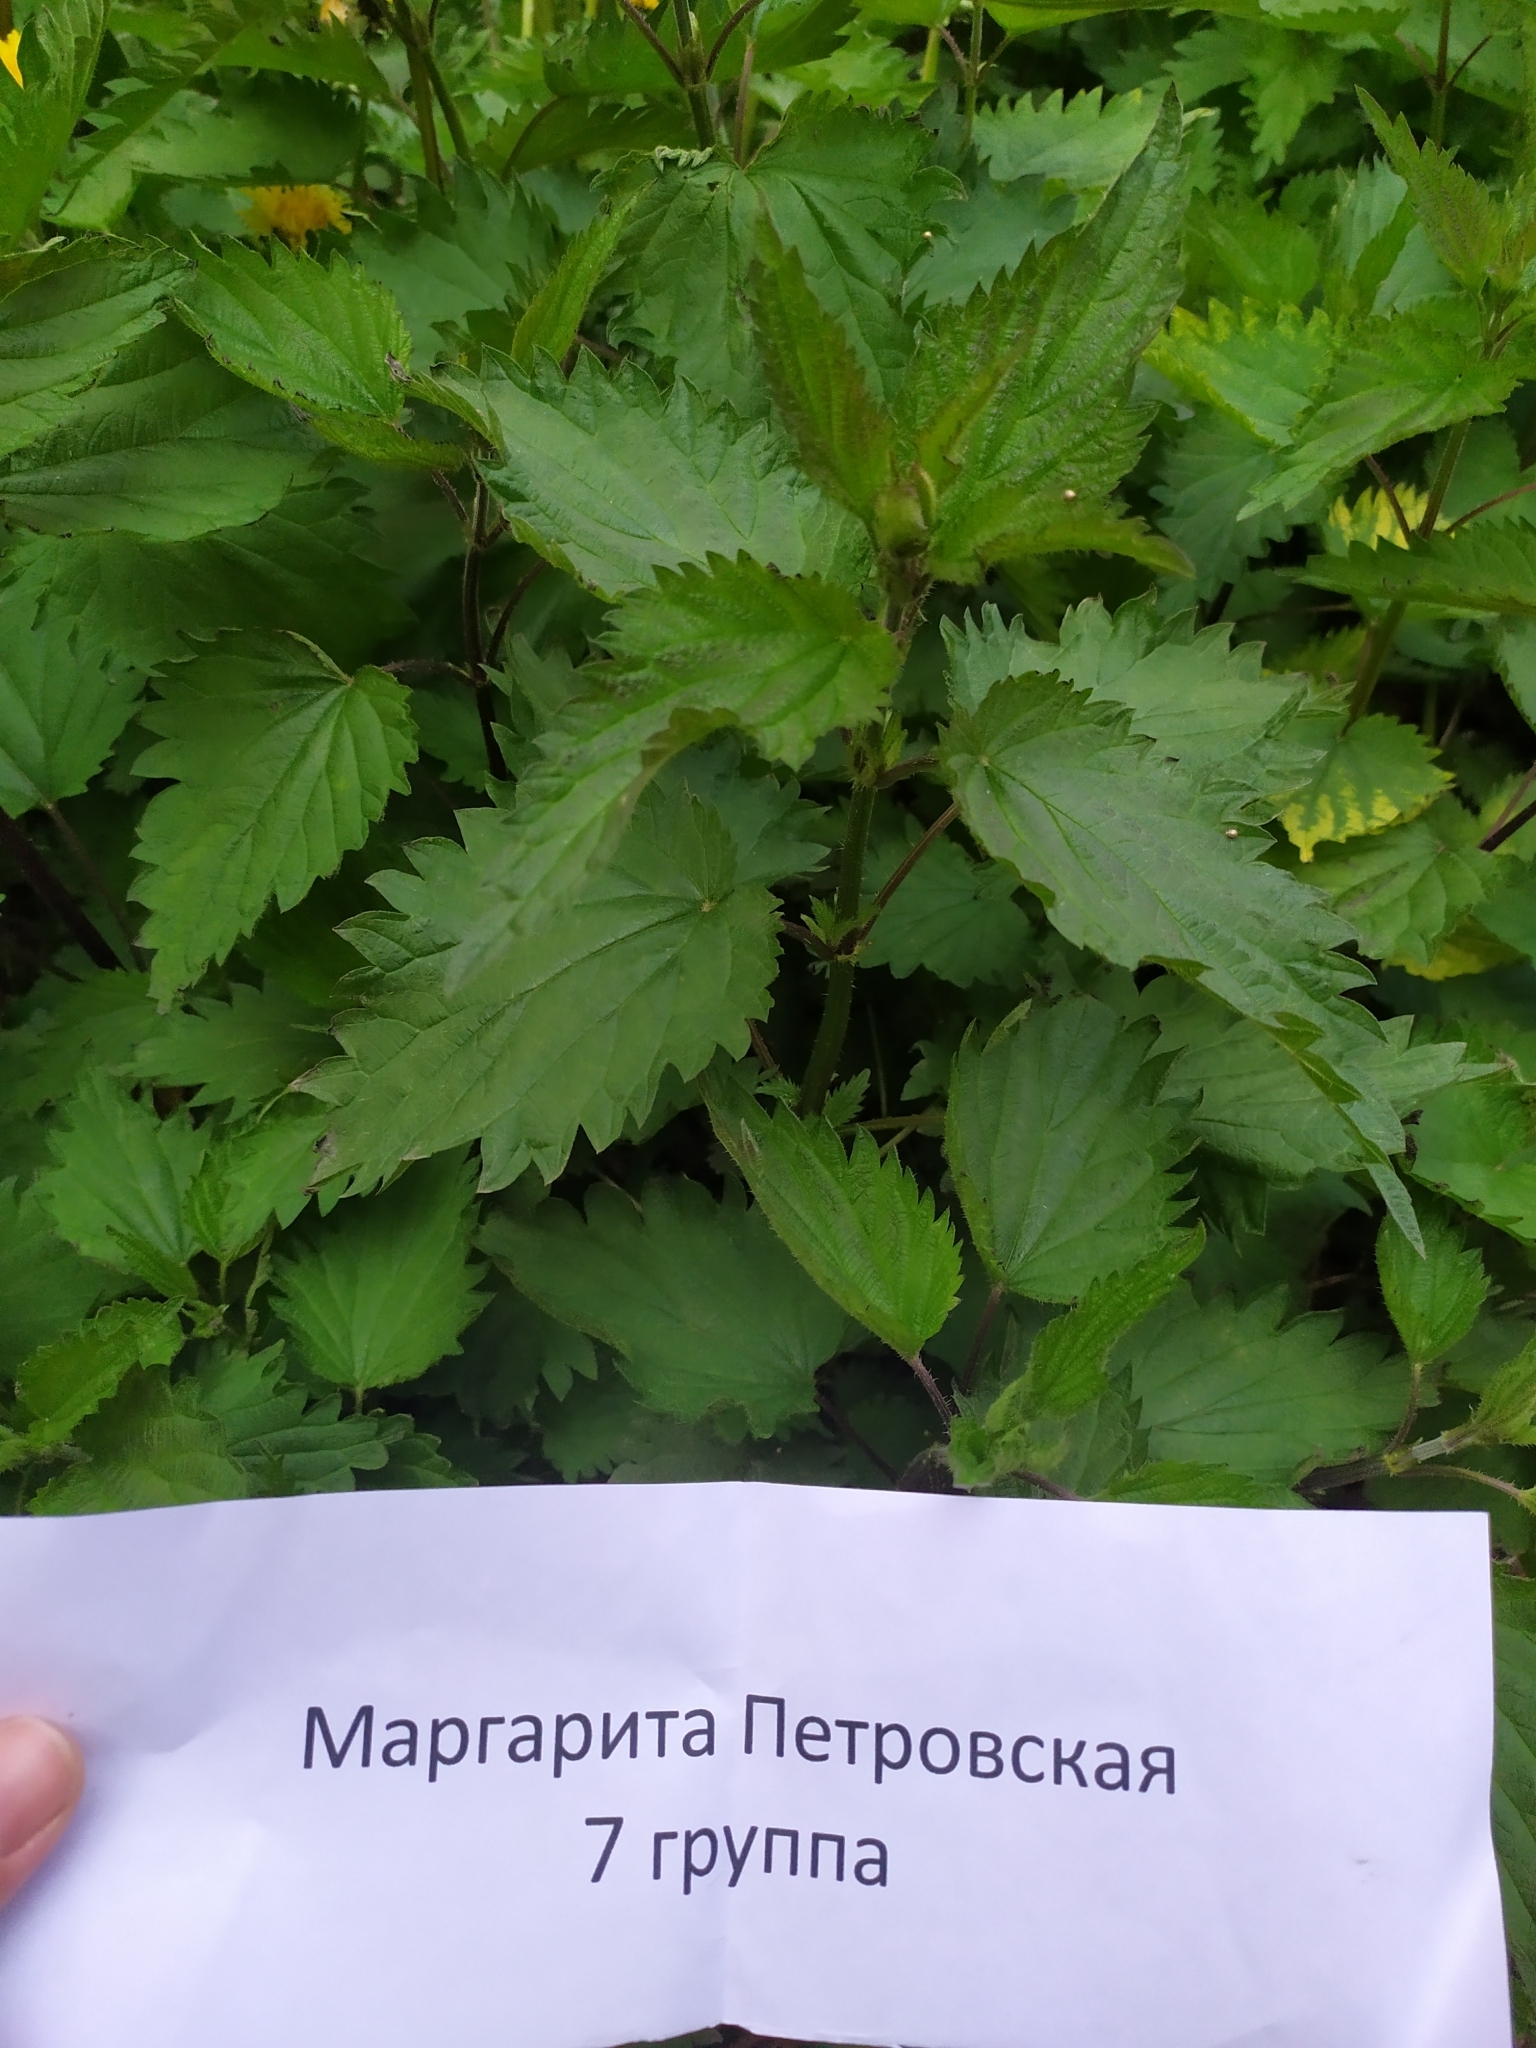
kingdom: Plantae
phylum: Tracheophyta
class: Magnoliopsida
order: Rosales
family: Urticaceae
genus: Urtica
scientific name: Urtica dioica
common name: Common nettle
